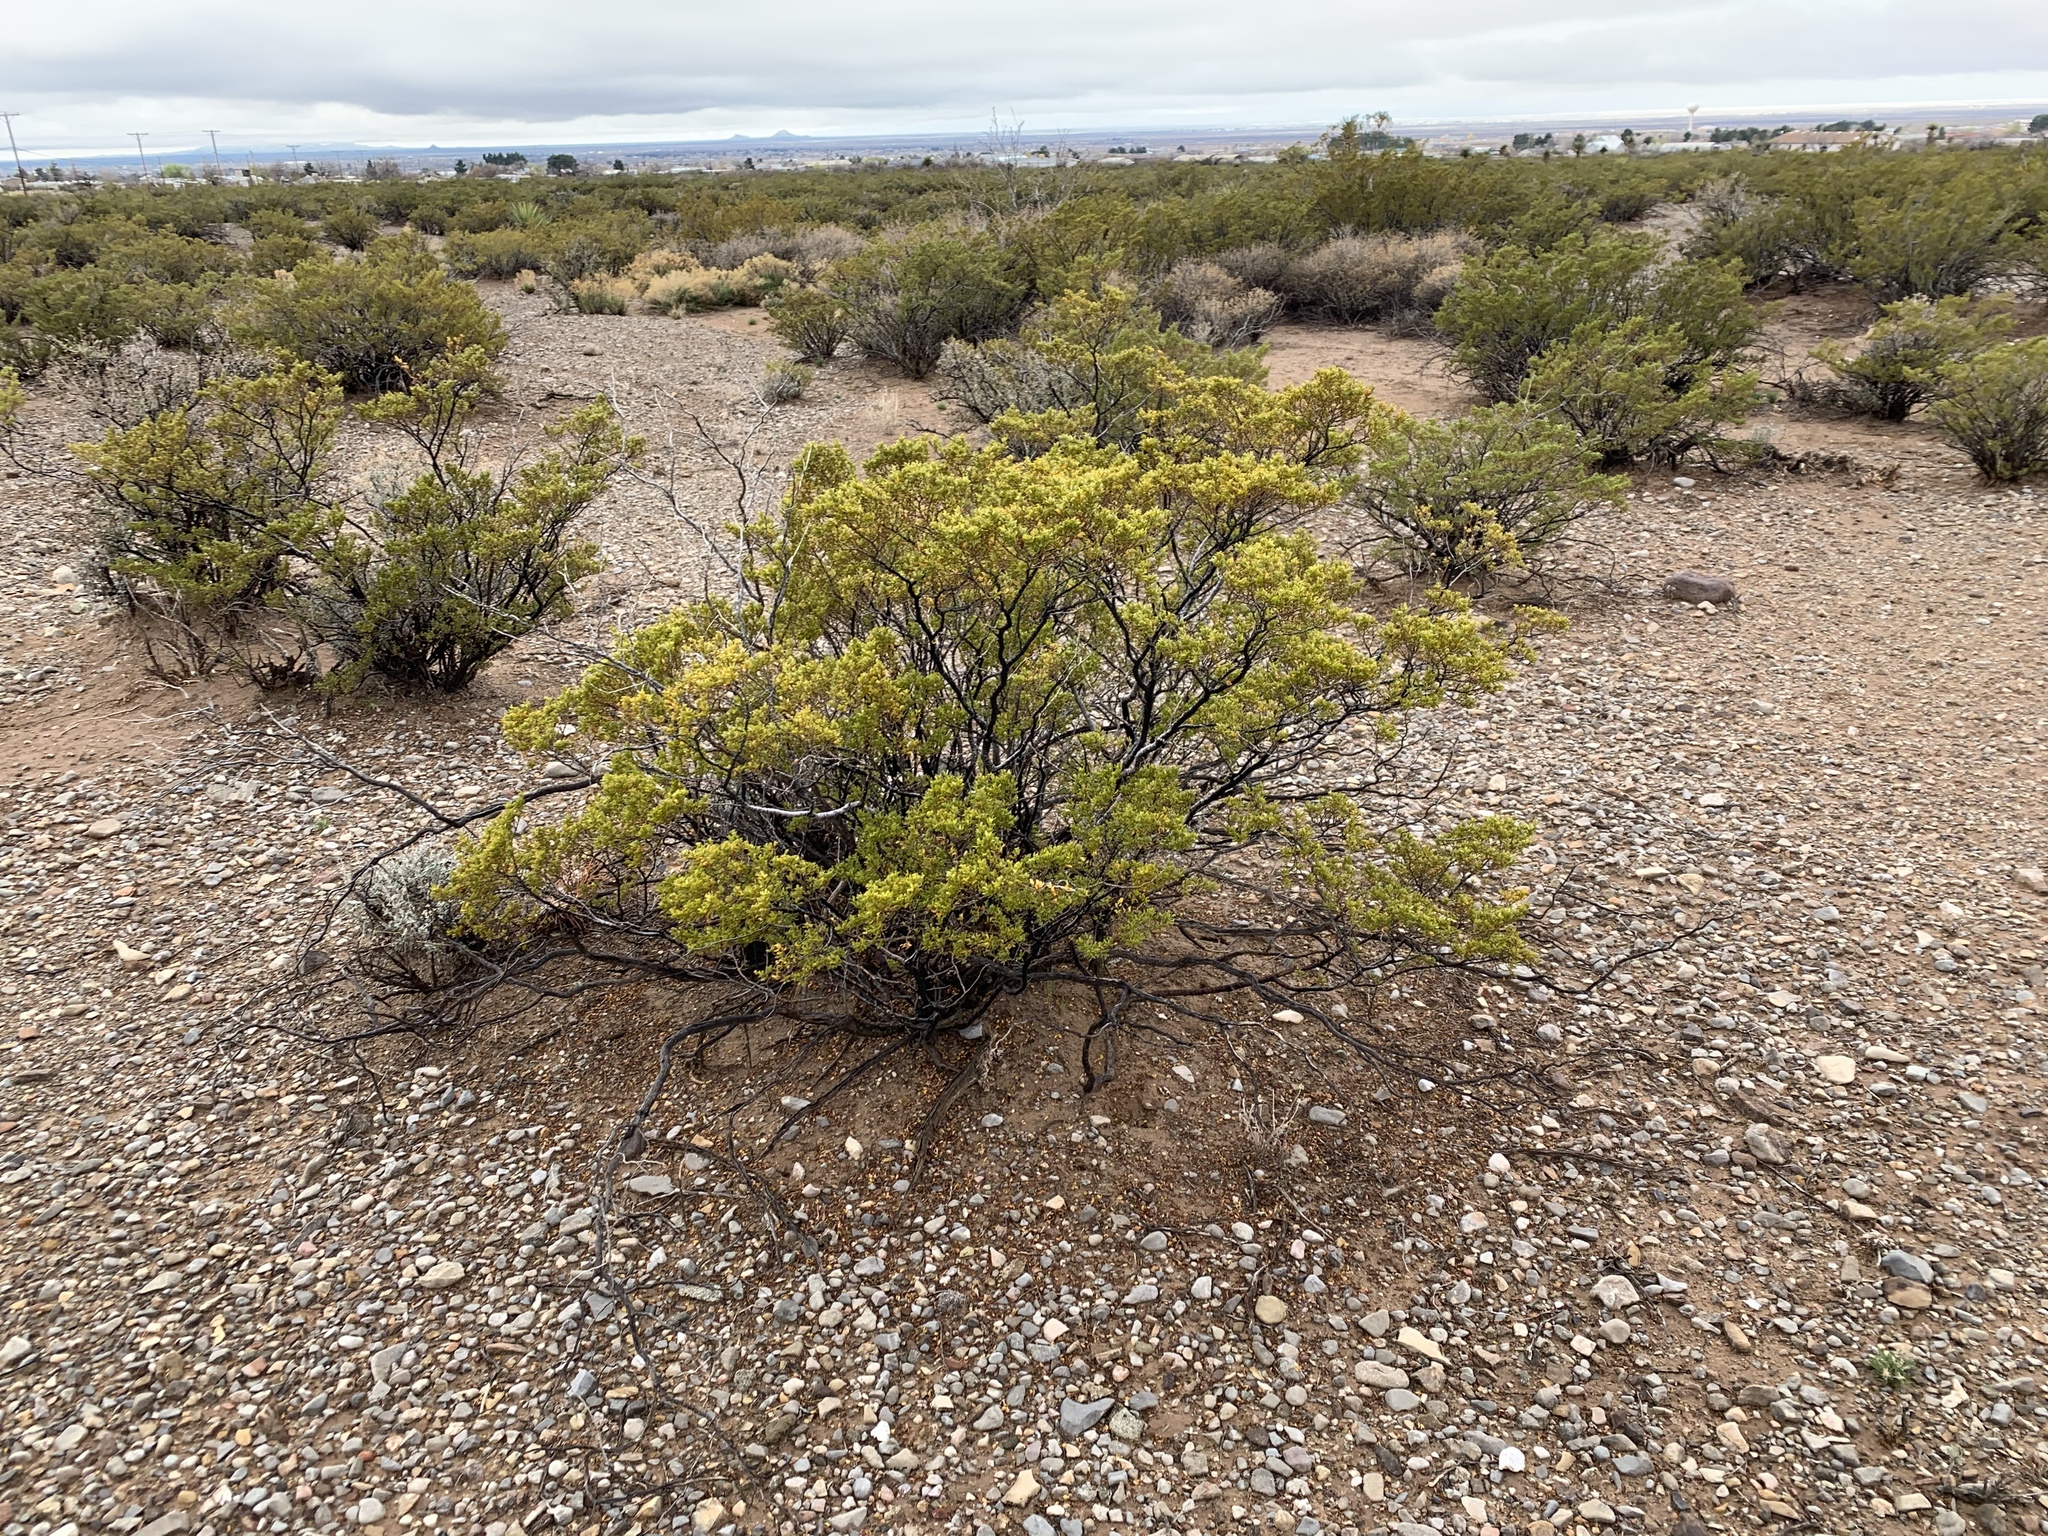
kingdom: Plantae
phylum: Tracheophyta
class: Magnoliopsida
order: Zygophyllales
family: Zygophyllaceae
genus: Larrea
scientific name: Larrea tridentata
